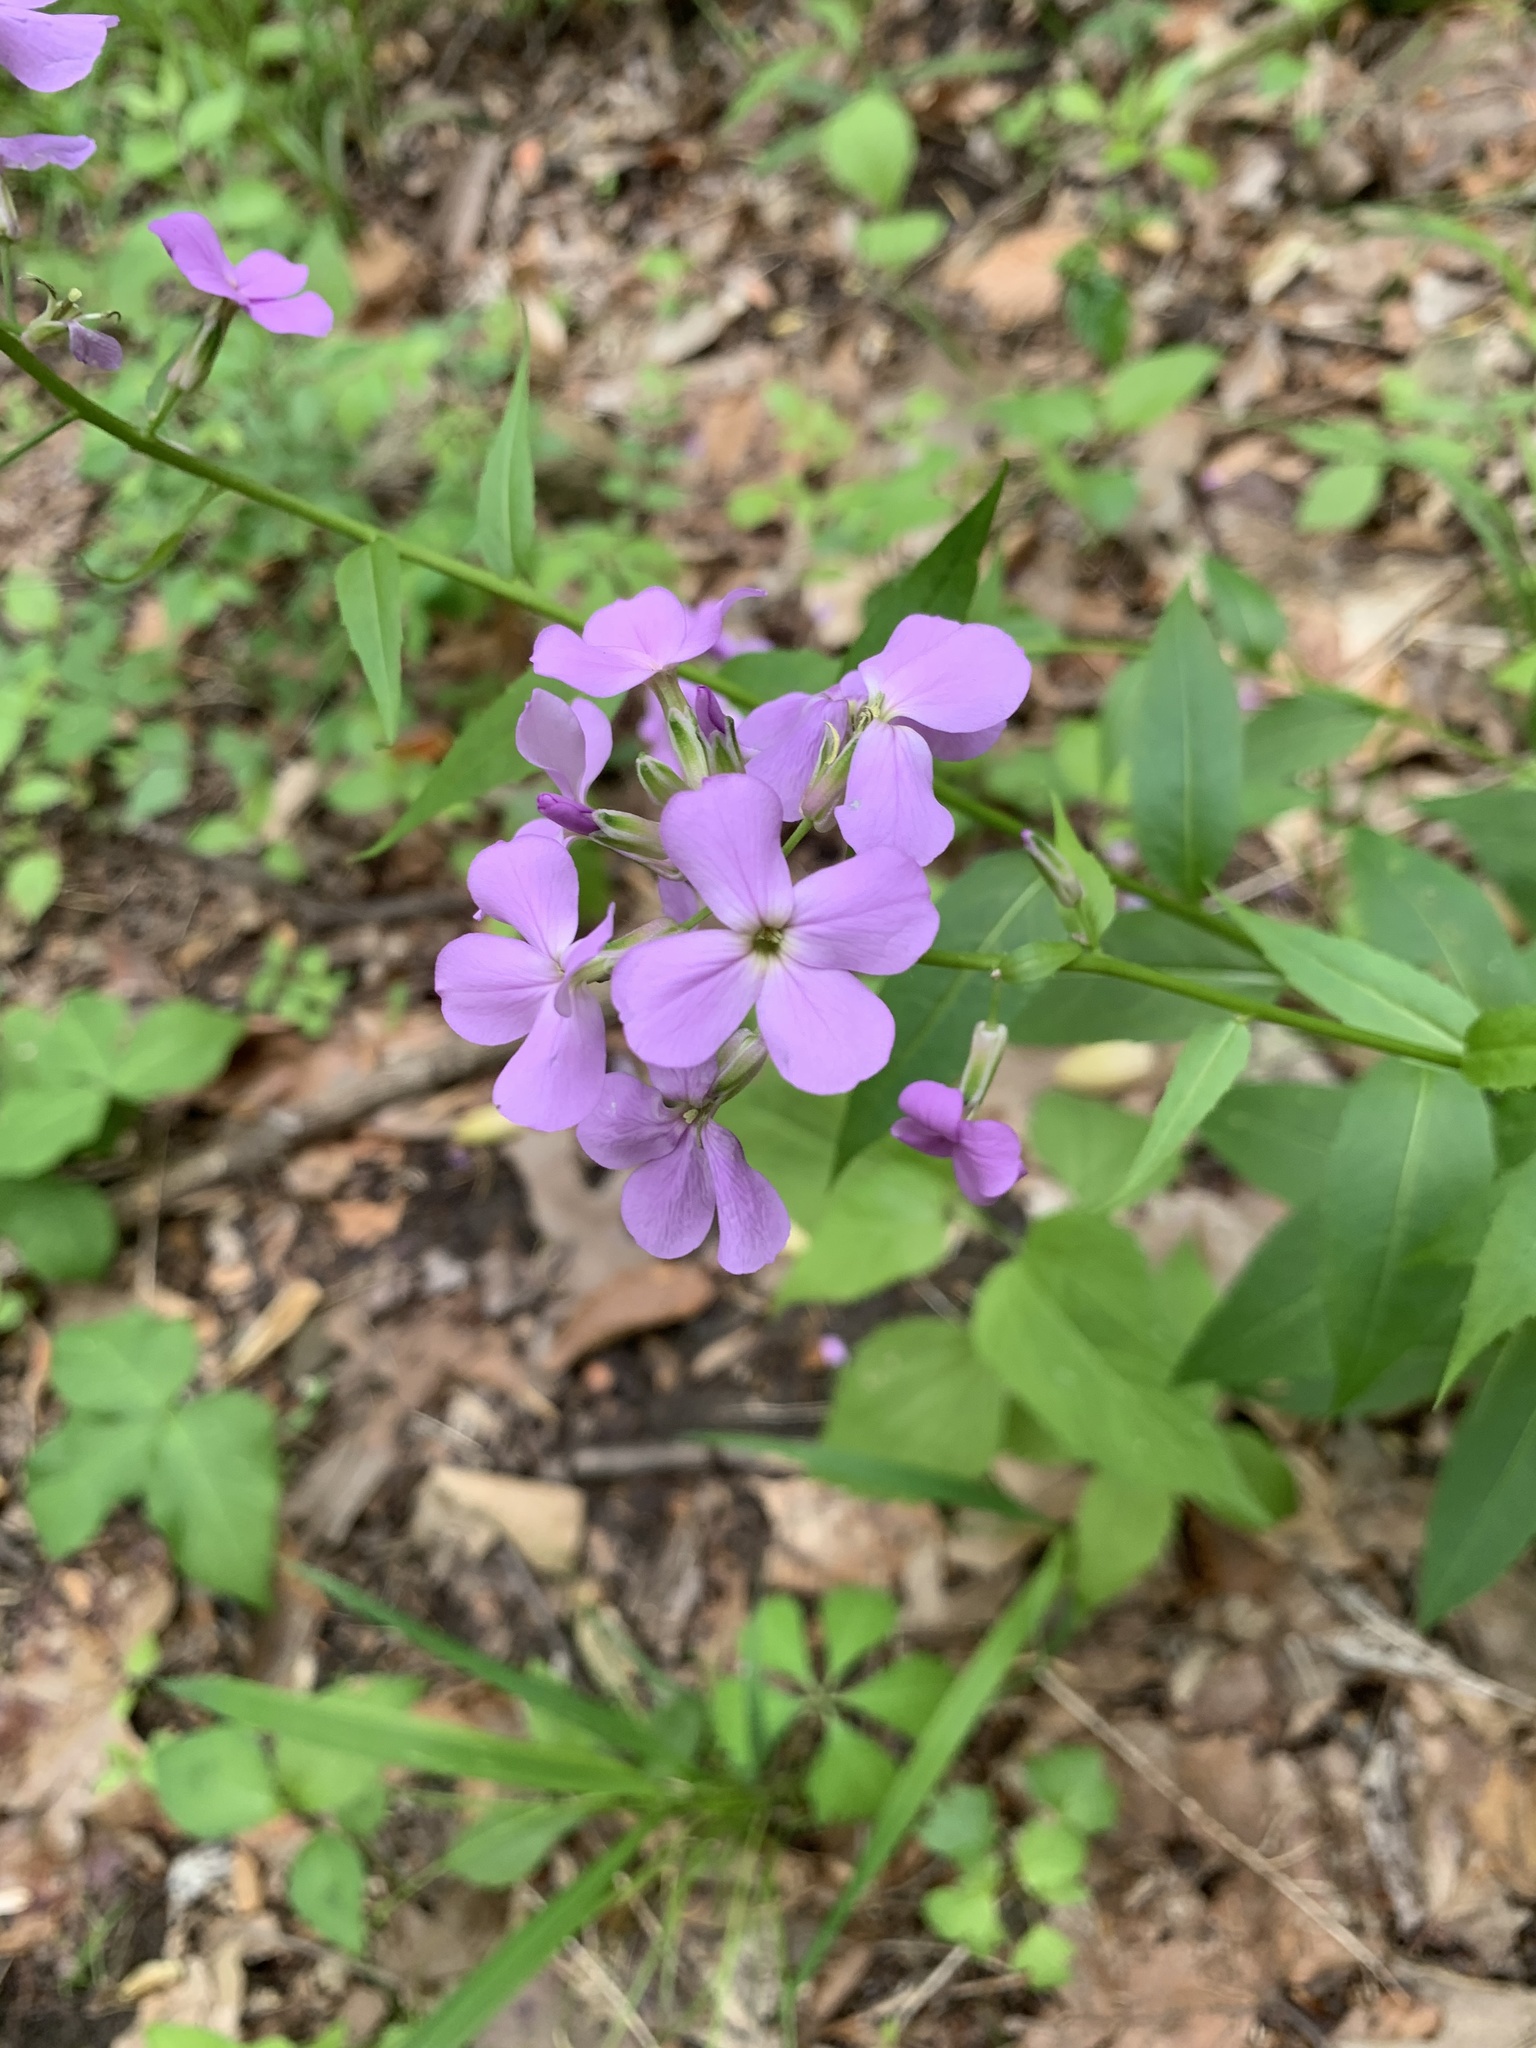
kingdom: Plantae
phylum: Tracheophyta
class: Magnoliopsida
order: Brassicales
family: Brassicaceae
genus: Hesperis
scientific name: Hesperis matronalis
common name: Dame's-violet
